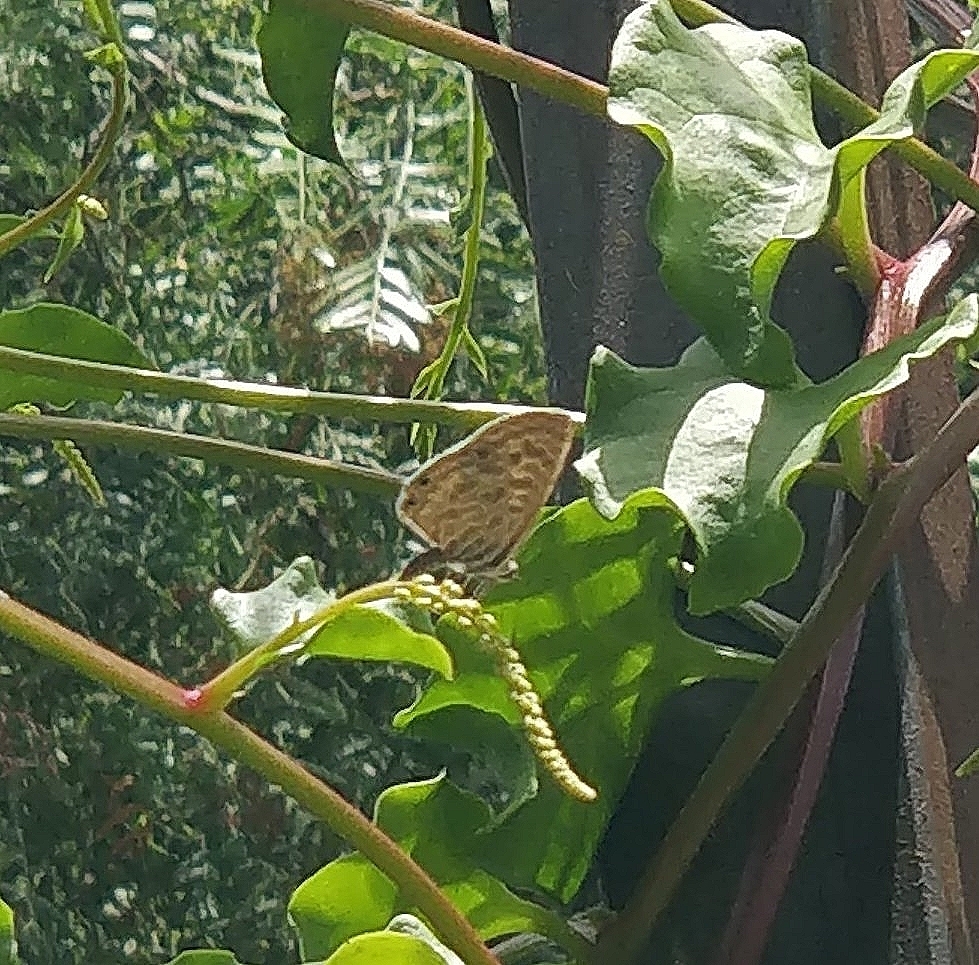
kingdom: Animalia
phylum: Arthropoda
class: Insecta
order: Lepidoptera
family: Lycaenidae
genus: Leptotes
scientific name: Leptotes pirithous
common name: Lang's short-tailed blue
